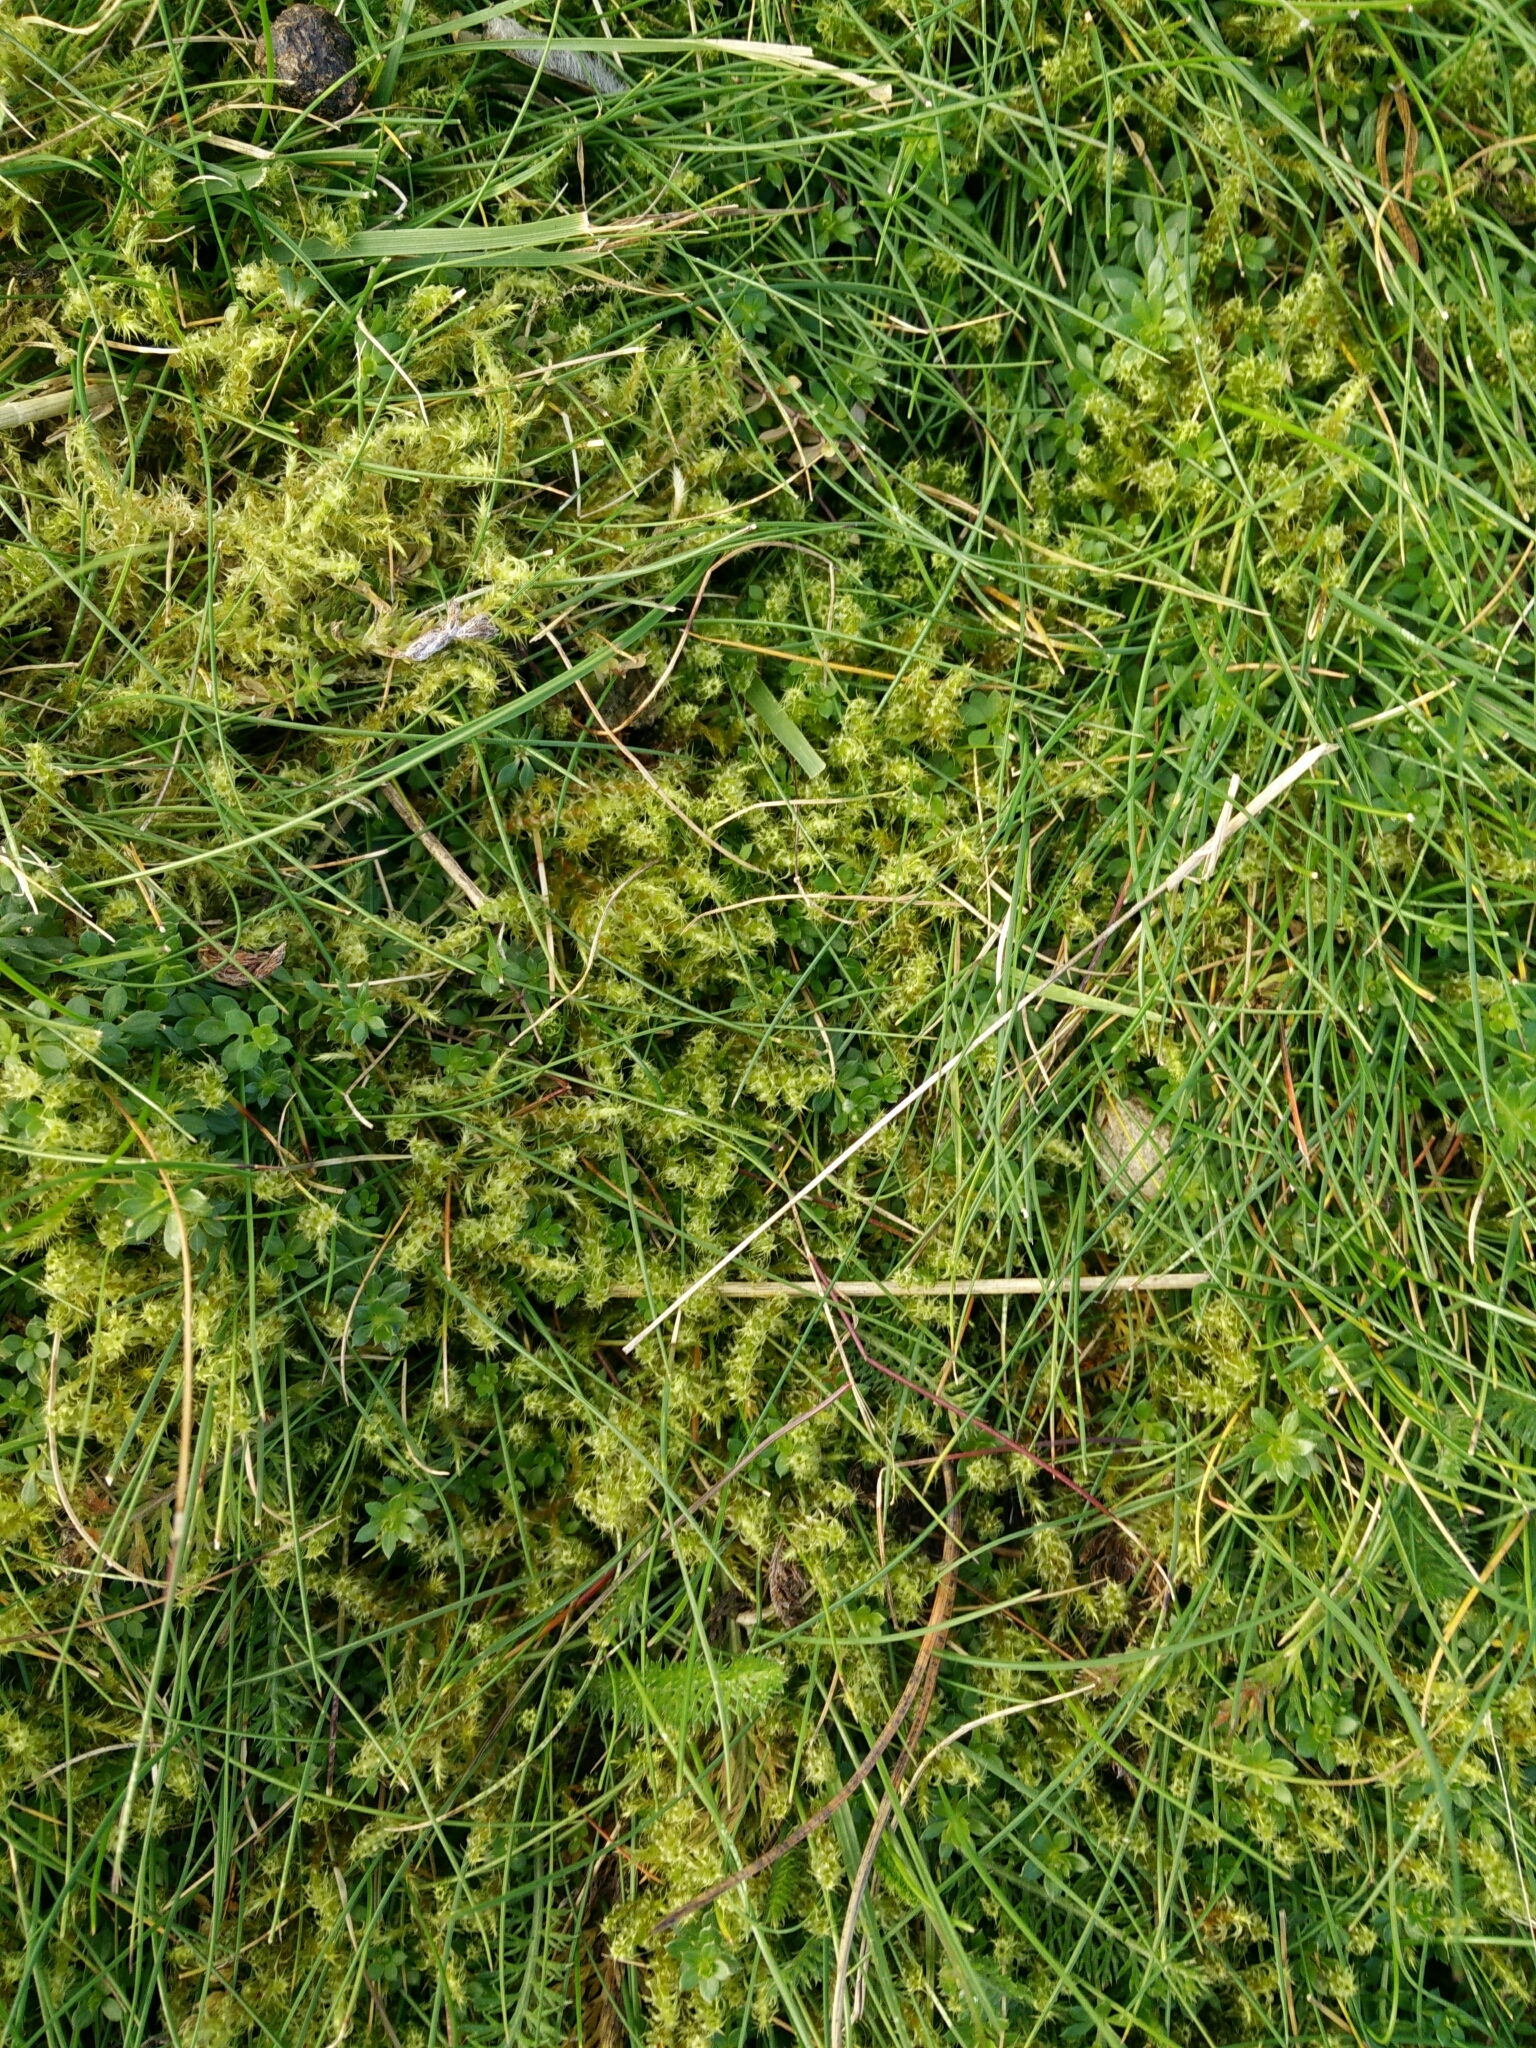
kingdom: Plantae
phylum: Bryophyta
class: Bryopsida
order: Hypnales
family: Hylocomiaceae
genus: Rhytidiadelphus
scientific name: Rhytidiadelphus squarrosus
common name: Springy turf-moss
